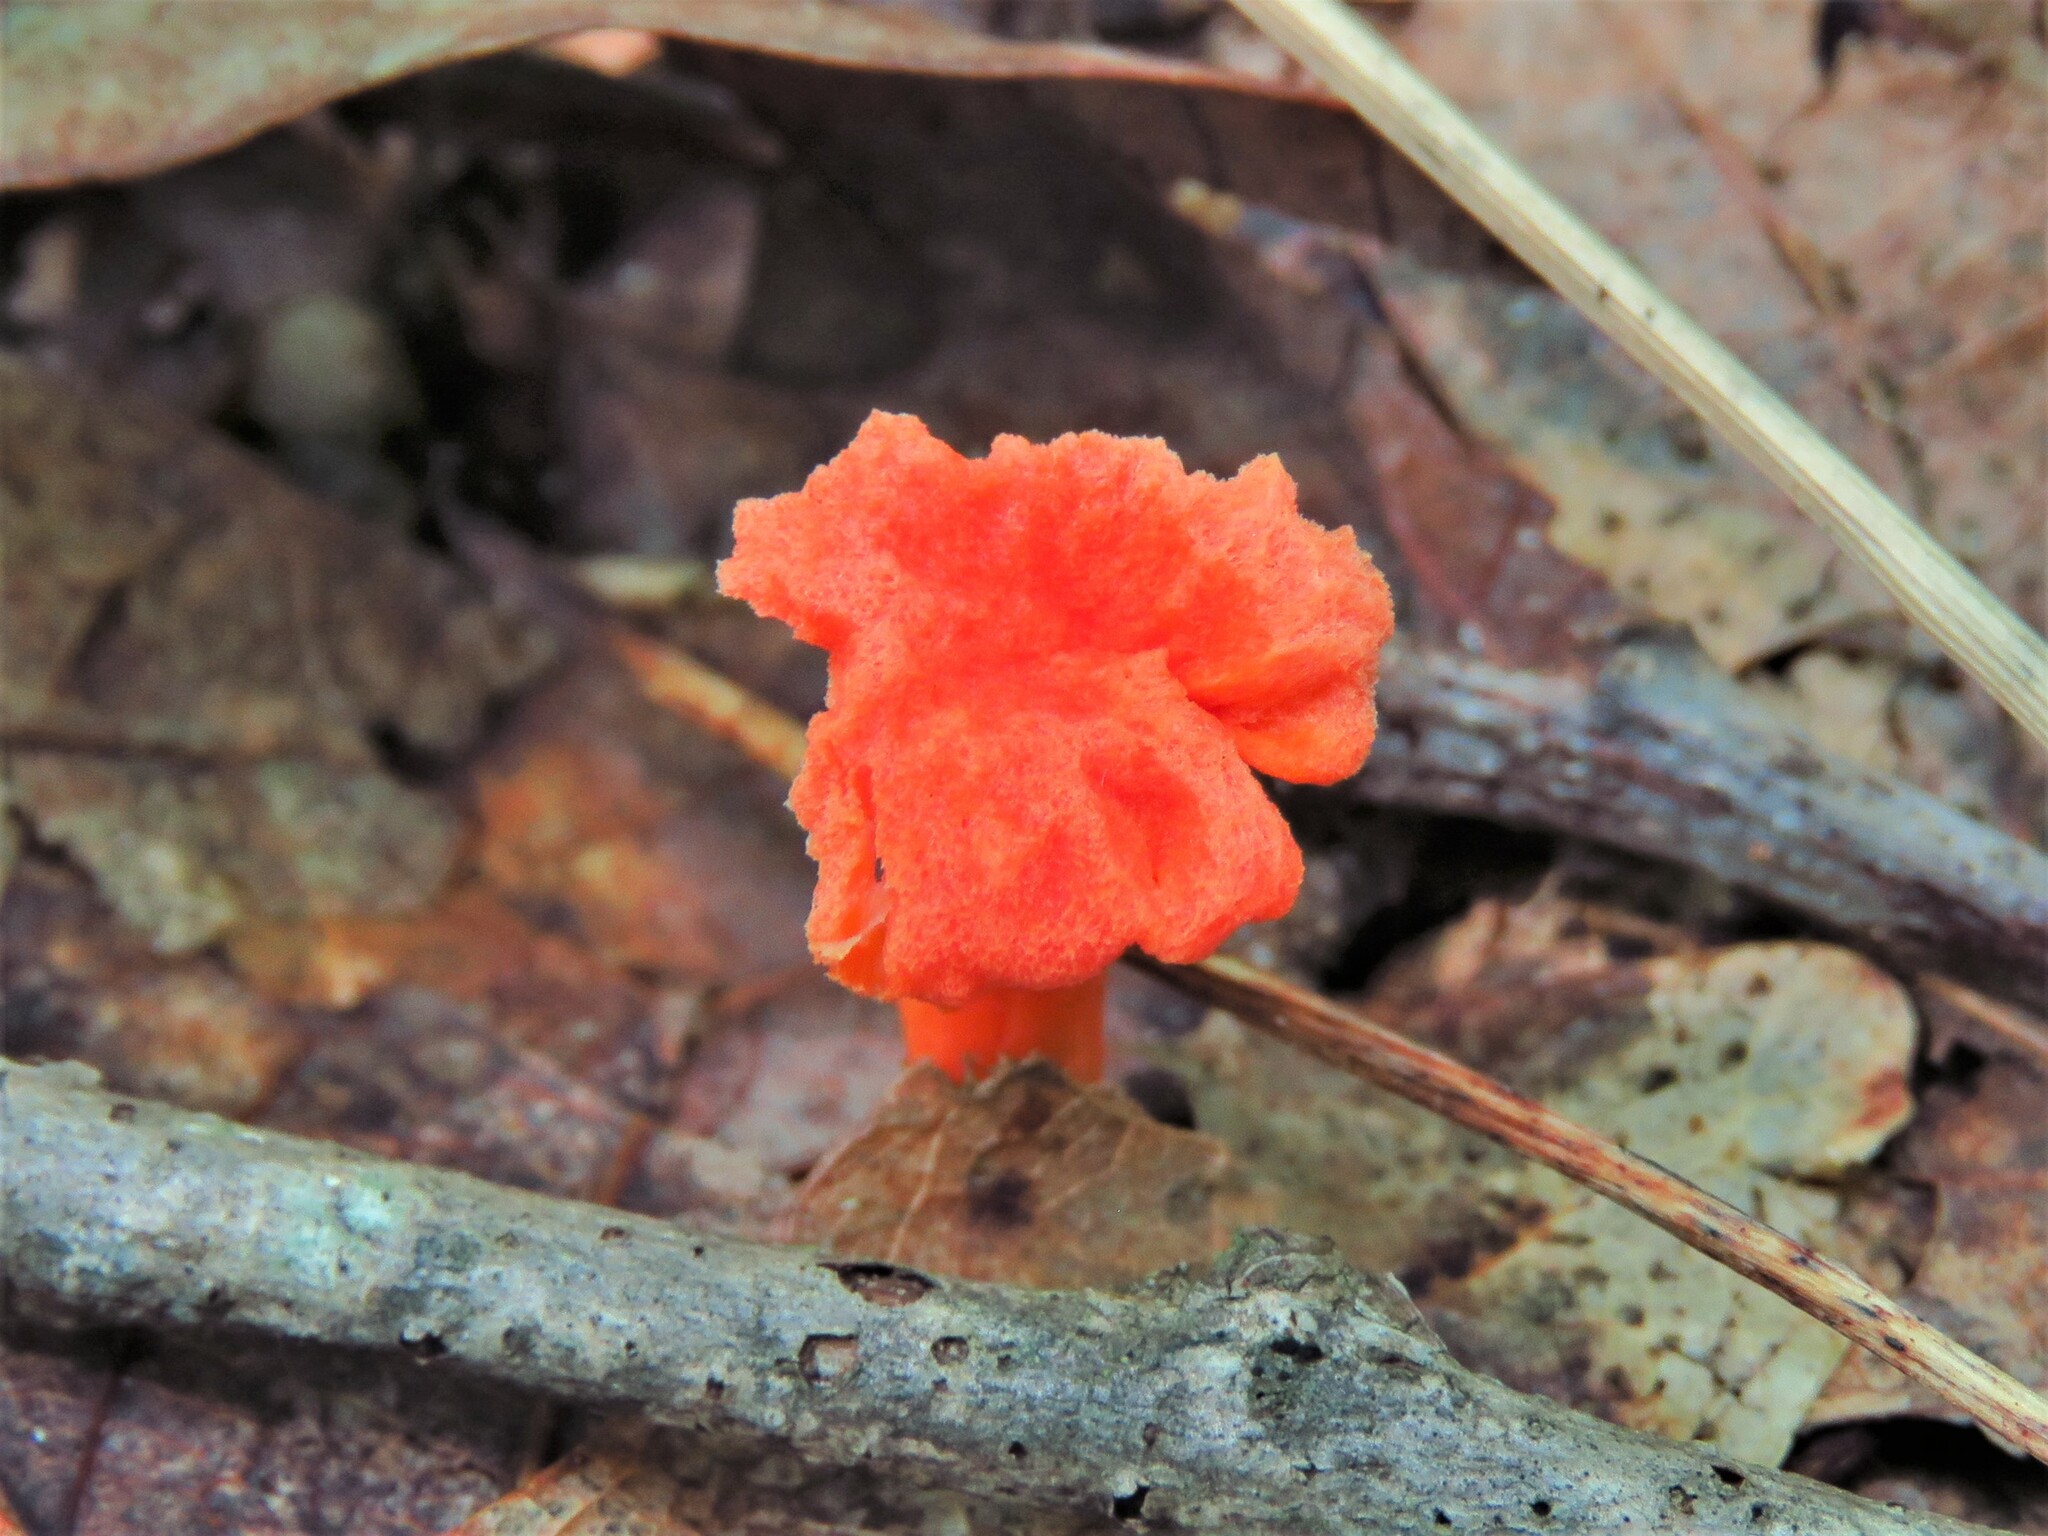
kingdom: Fungi
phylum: Basidiomycota
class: Agaricomycetes
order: Cantharellales
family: Hydnaceae
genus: Cantharellus
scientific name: Cantharellus cinnabarinus
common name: Cinnabar chanterelle
